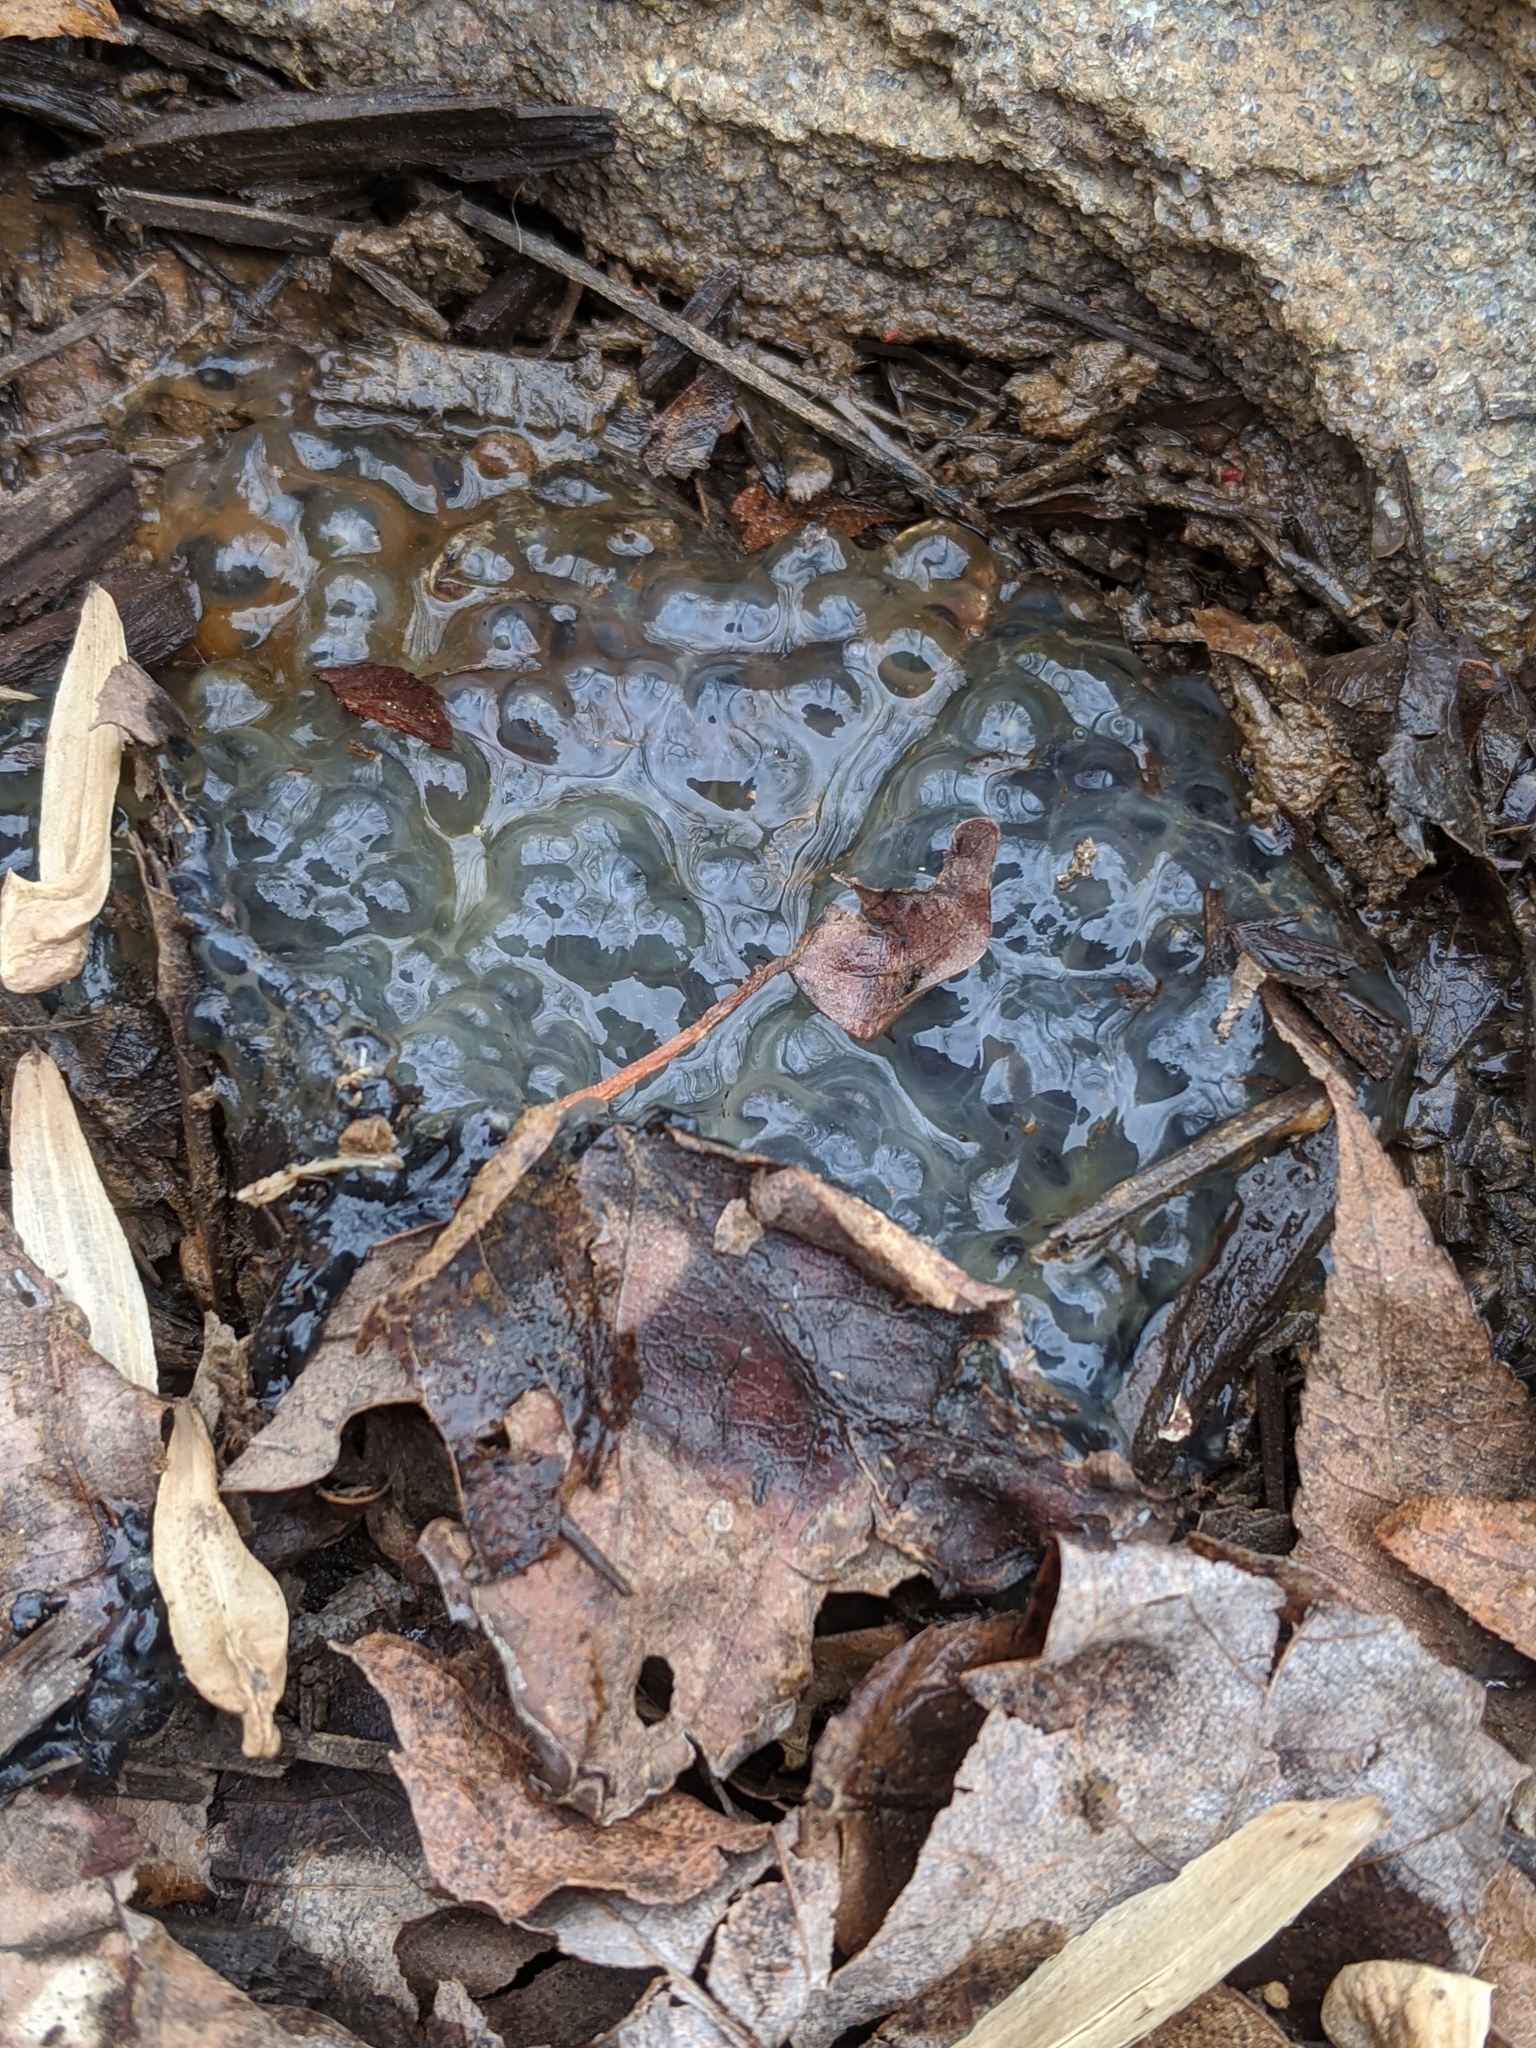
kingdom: Animalia
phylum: Chordata
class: Amphibia
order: Anura
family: Ranidae
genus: Lithobates
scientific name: Lithobates sylvaticus
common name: Wood frog
